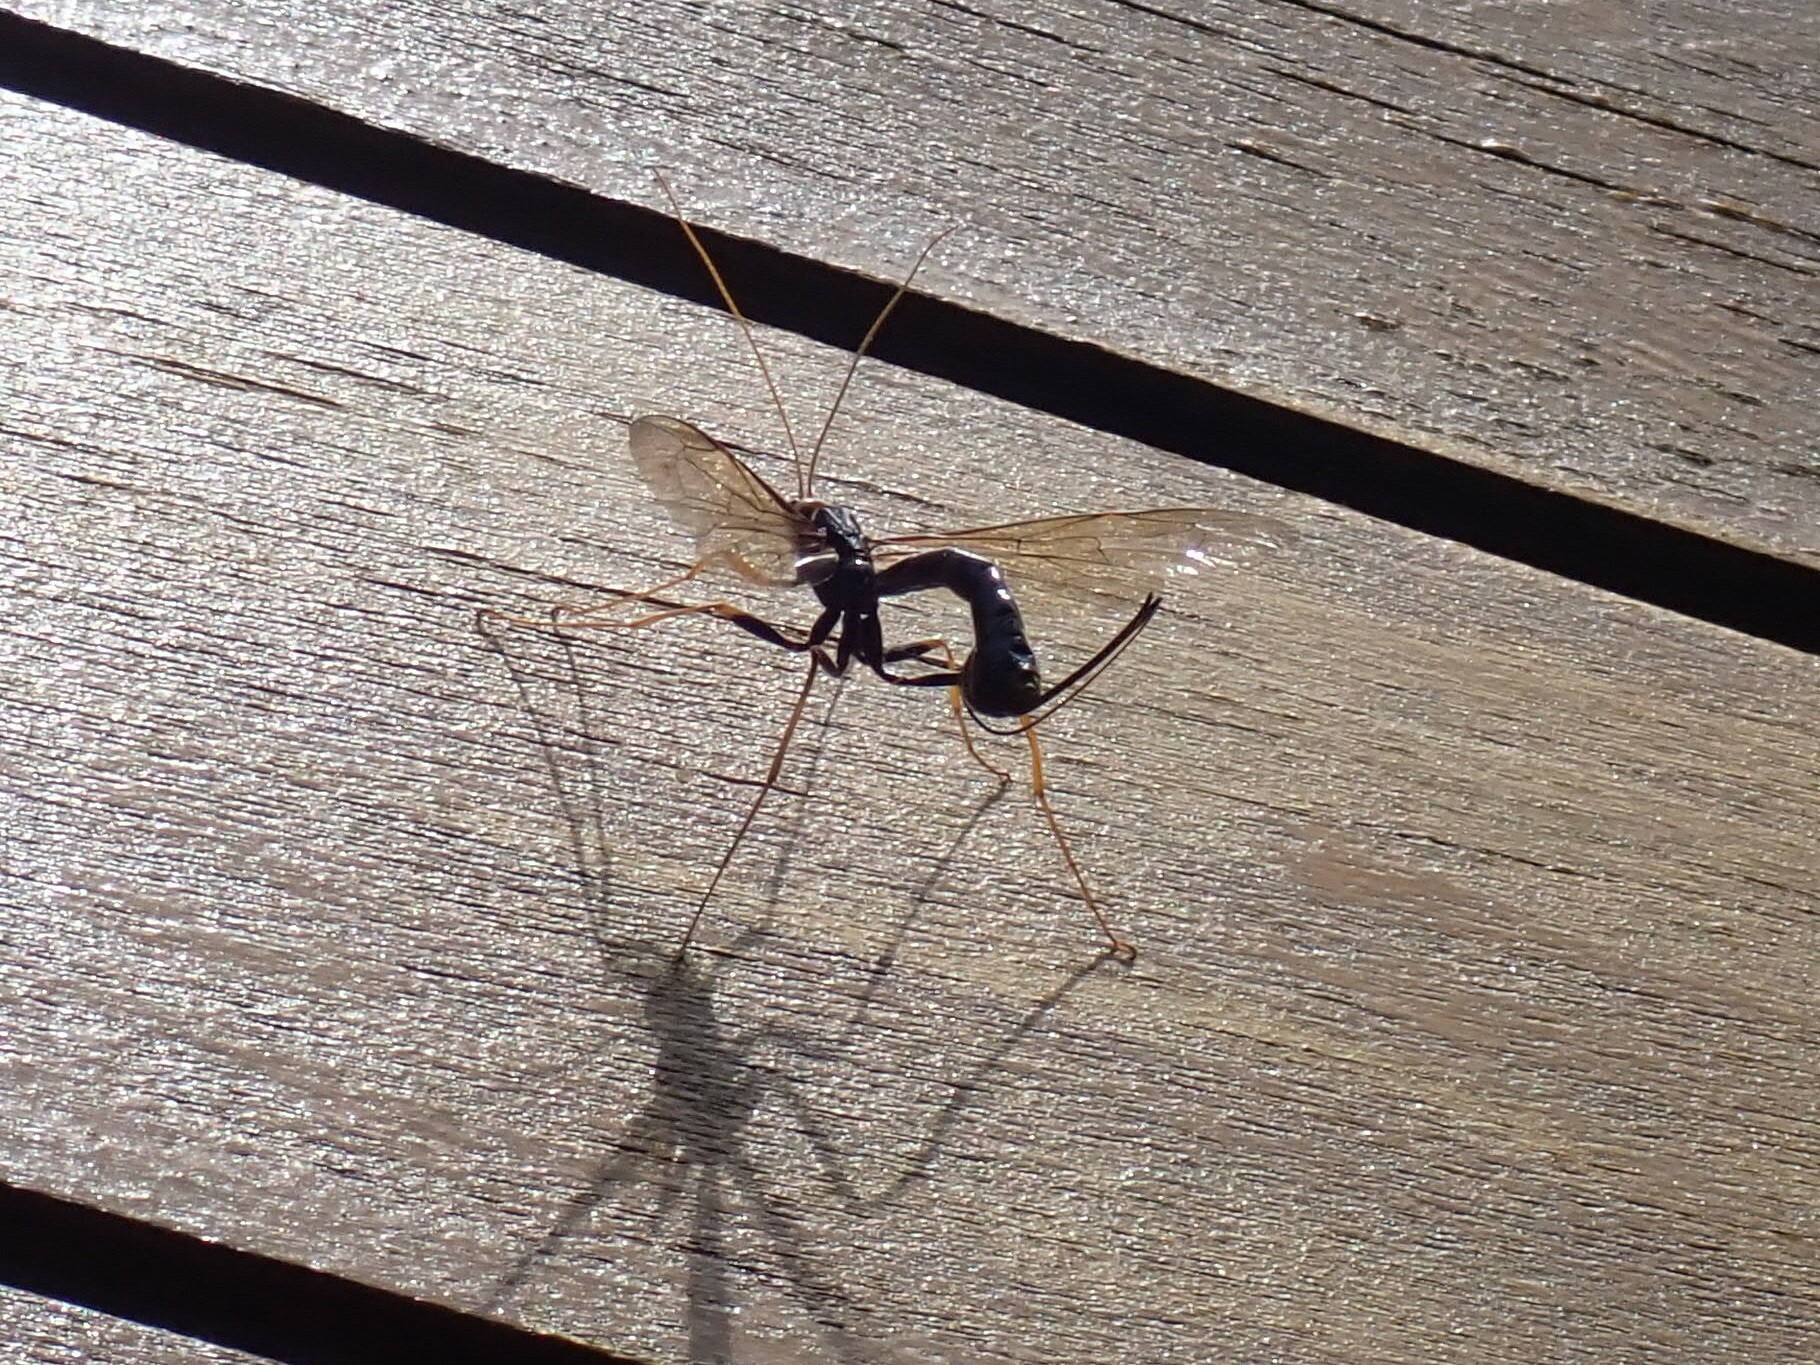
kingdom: Animalia
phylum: Arthropoda
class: Insecta
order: Hymenoptera
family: Ichneumonidae
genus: Megarhyssa
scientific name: Megarhyssa atrata
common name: Black giant ichneumonid wasp
